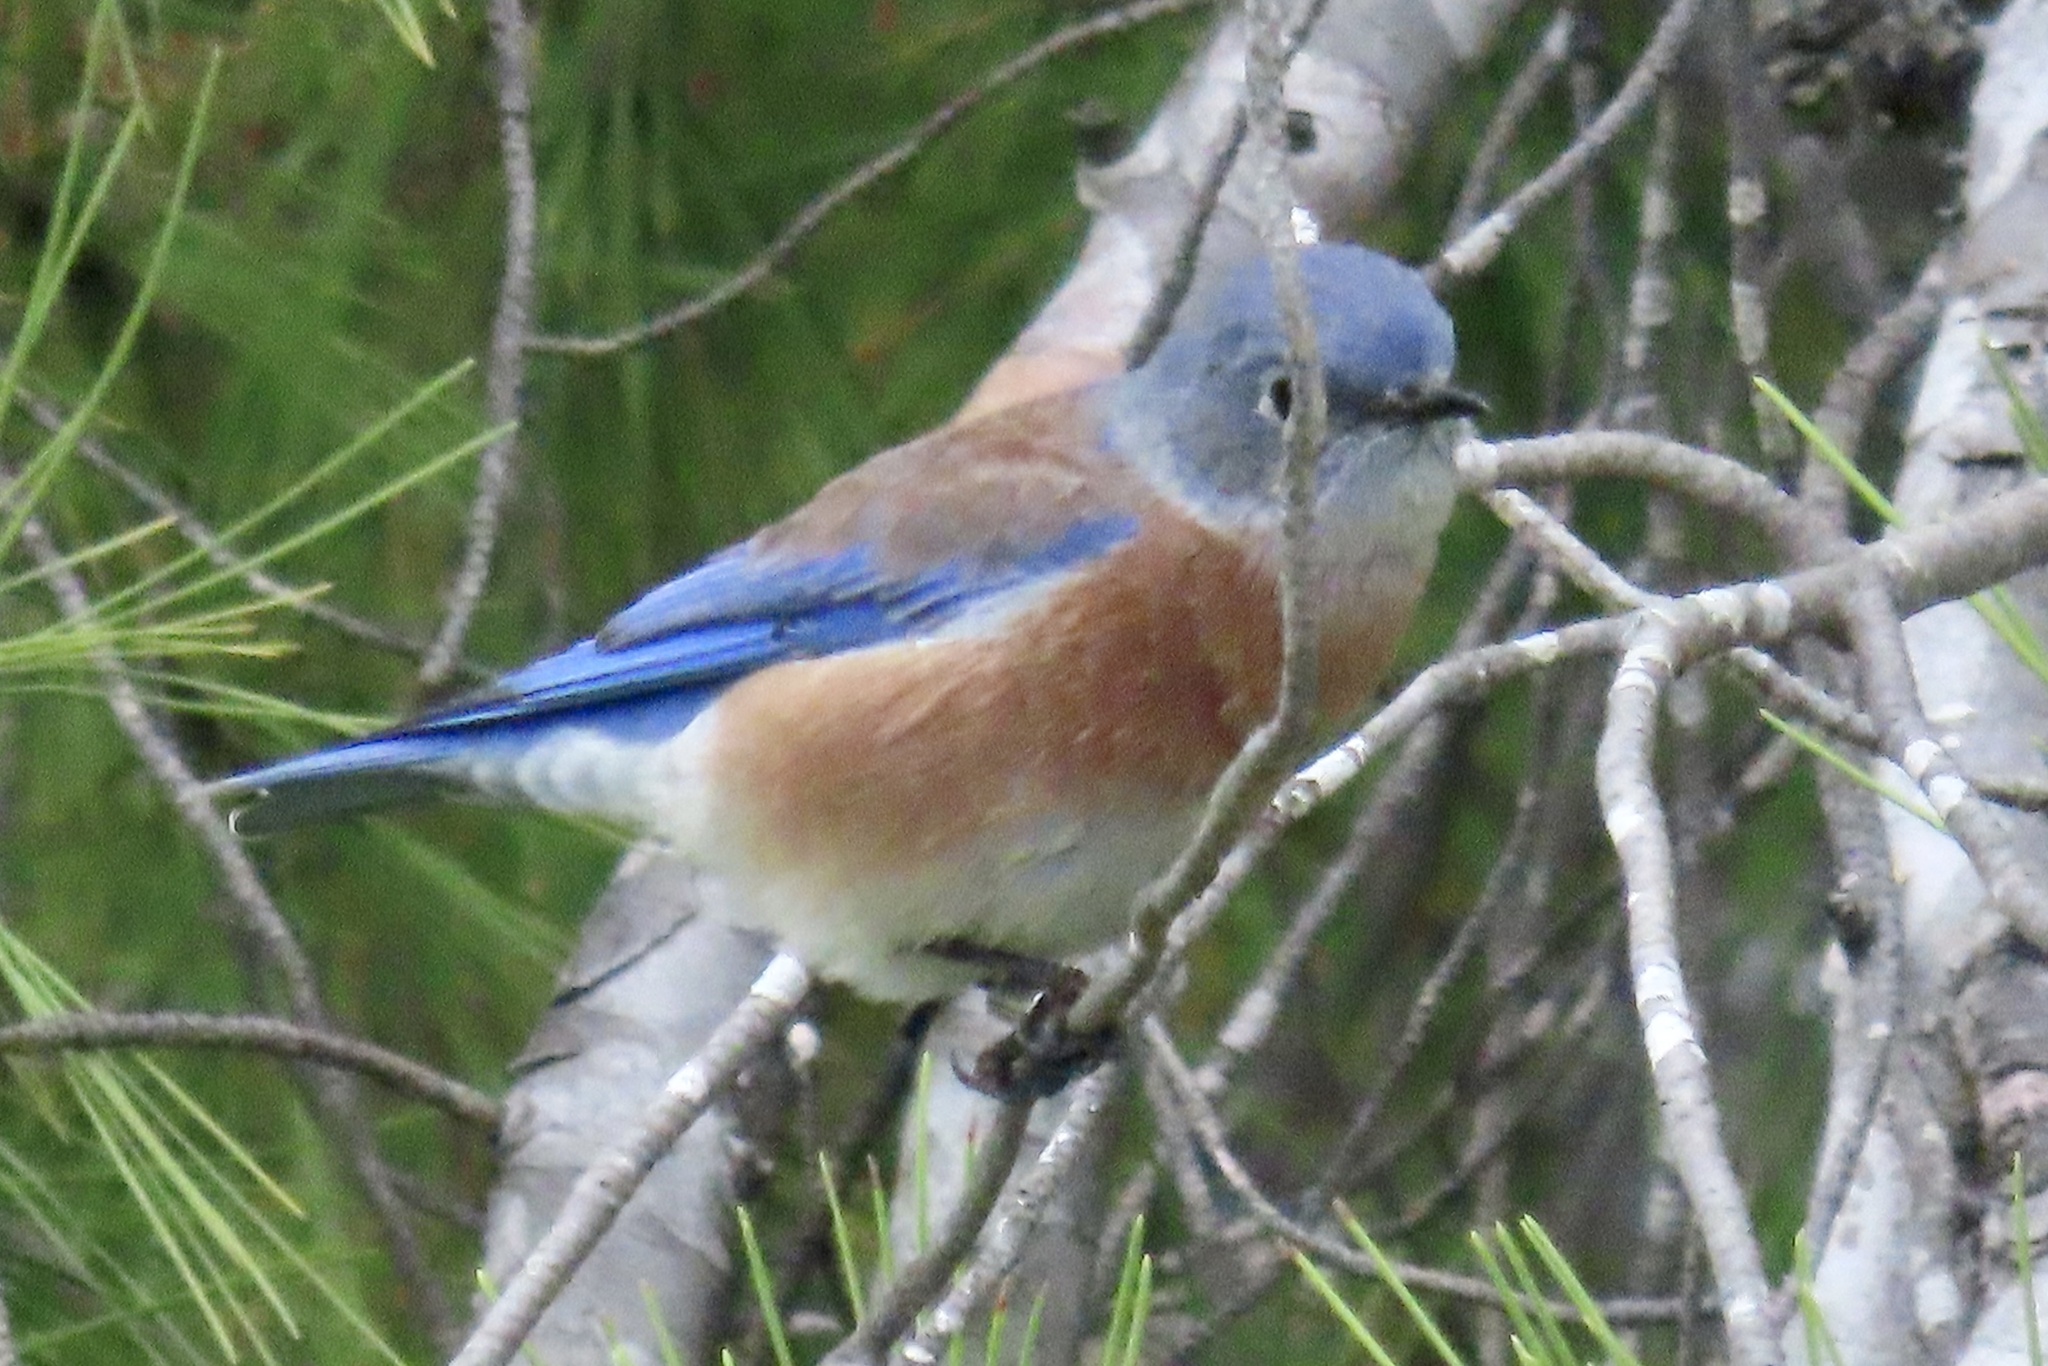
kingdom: Animalia
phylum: Chordata
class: Aves
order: Passeriformes
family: Turdidae
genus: Sialia
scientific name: Sialia mexicana
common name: Western bluebird
